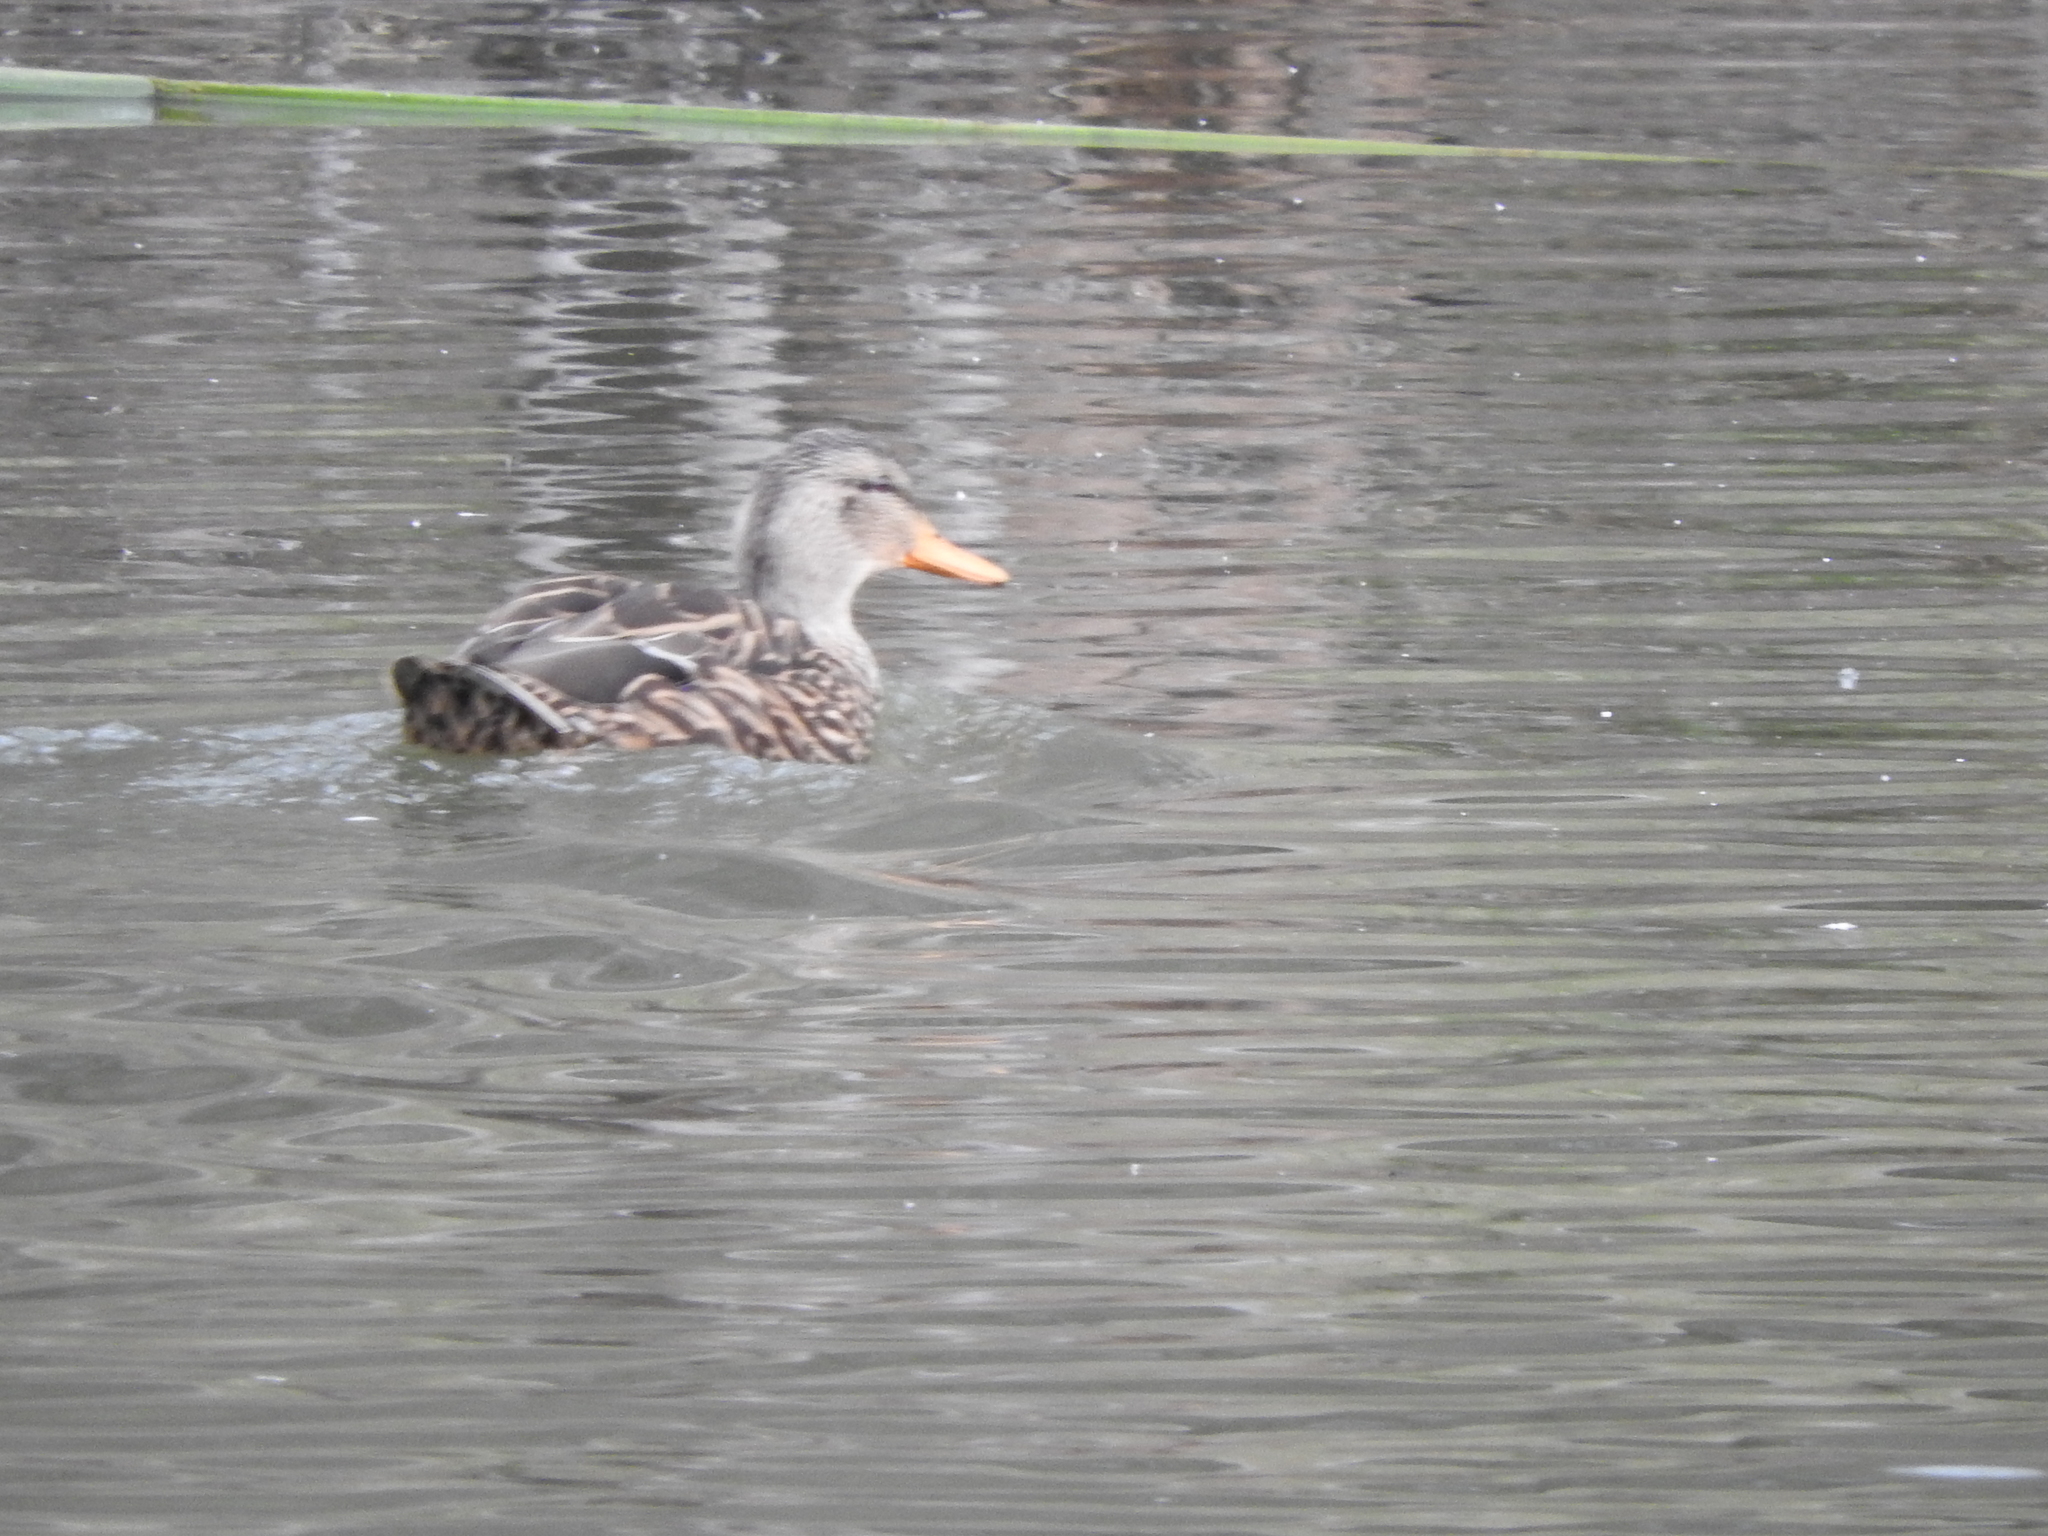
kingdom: Animalia
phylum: Chordata
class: Aves
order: Anseriformes
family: Anatidae
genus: Anas
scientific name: Anas diazi
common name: Mexican duck
